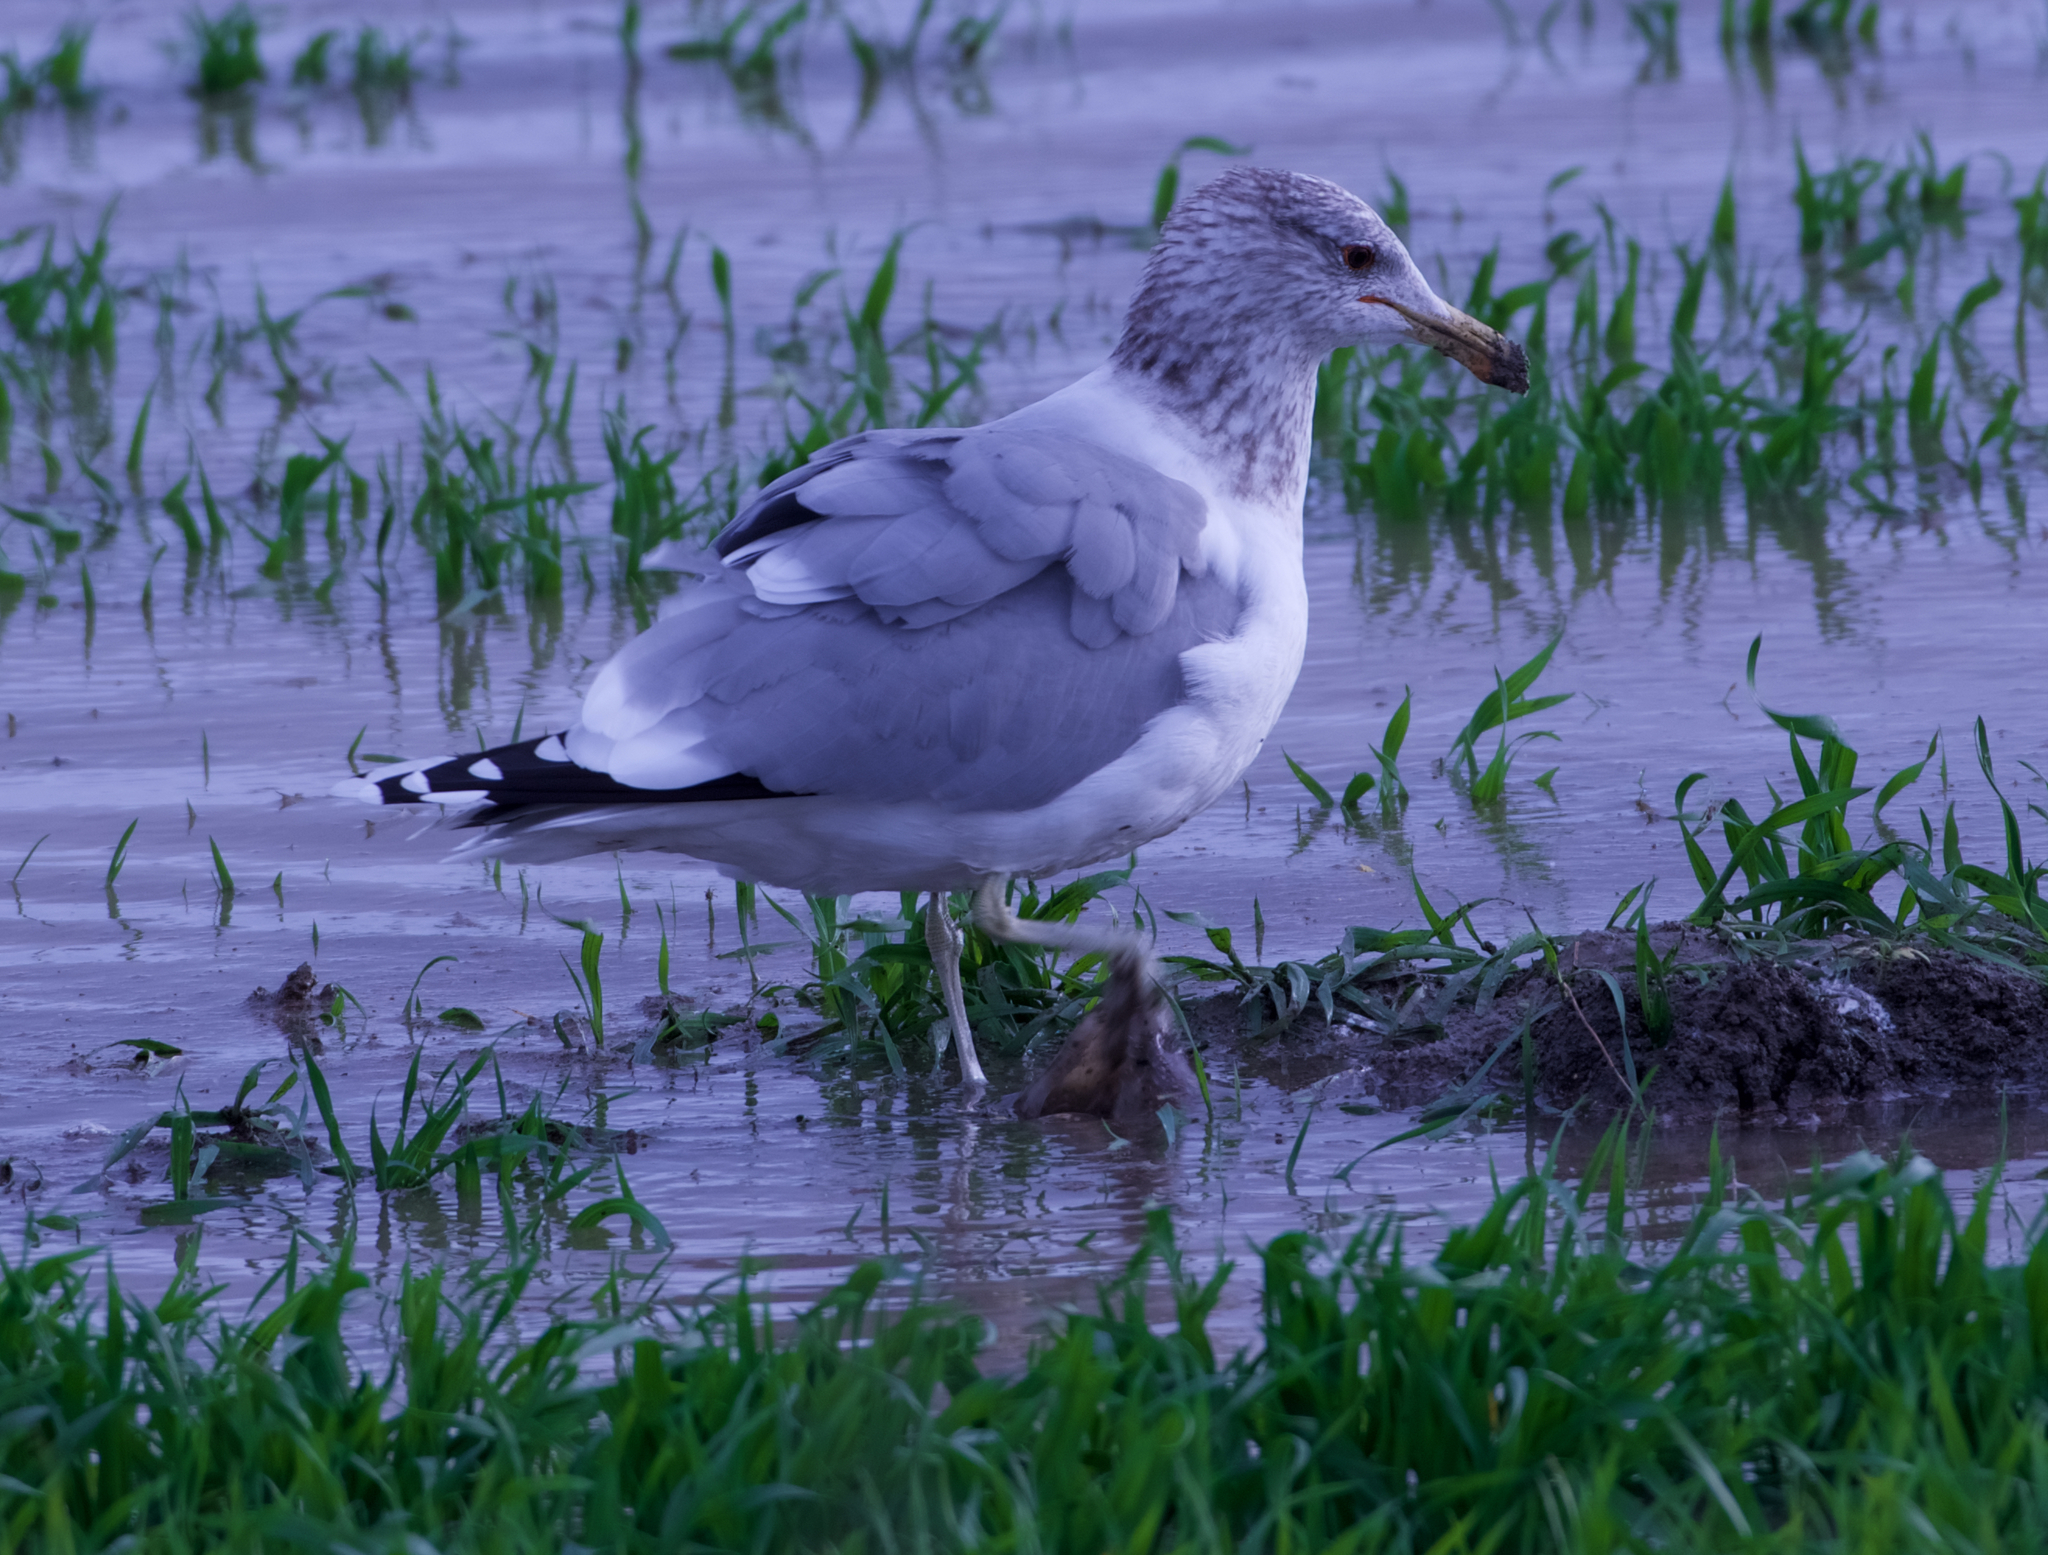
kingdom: Animalia
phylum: Chordata
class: Aves
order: Charadriiformes
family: Laridae
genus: Larus
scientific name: Larus californicus
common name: California gull
